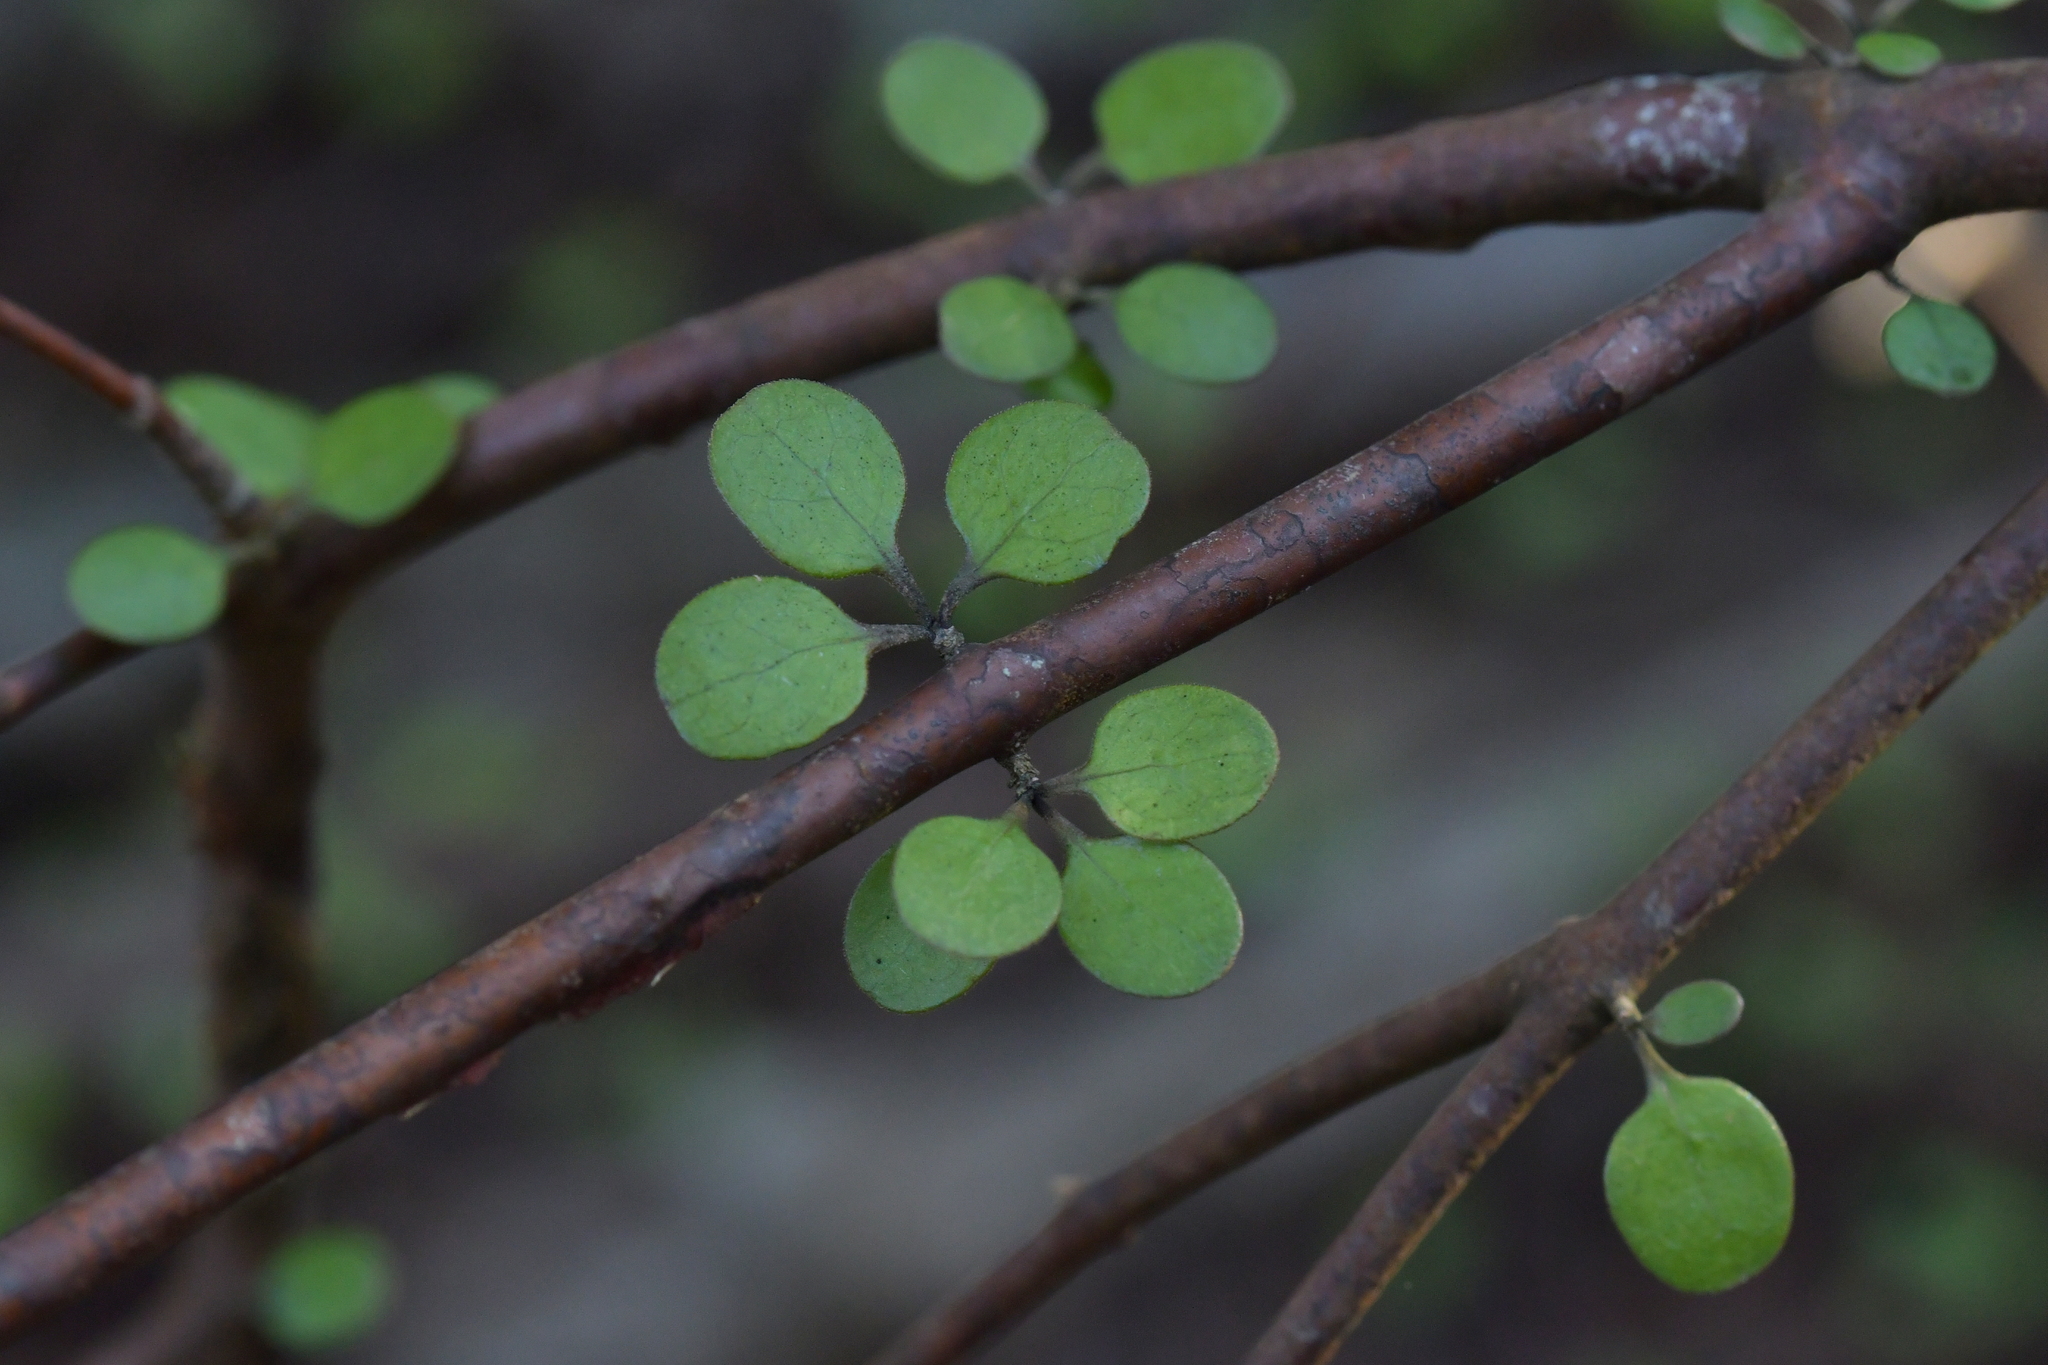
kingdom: Plantae
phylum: Tracheophyta
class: Magnoliopsida
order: Gentianales
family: Rubiaceae
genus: Coprosma
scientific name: Coprosma crassifolia
